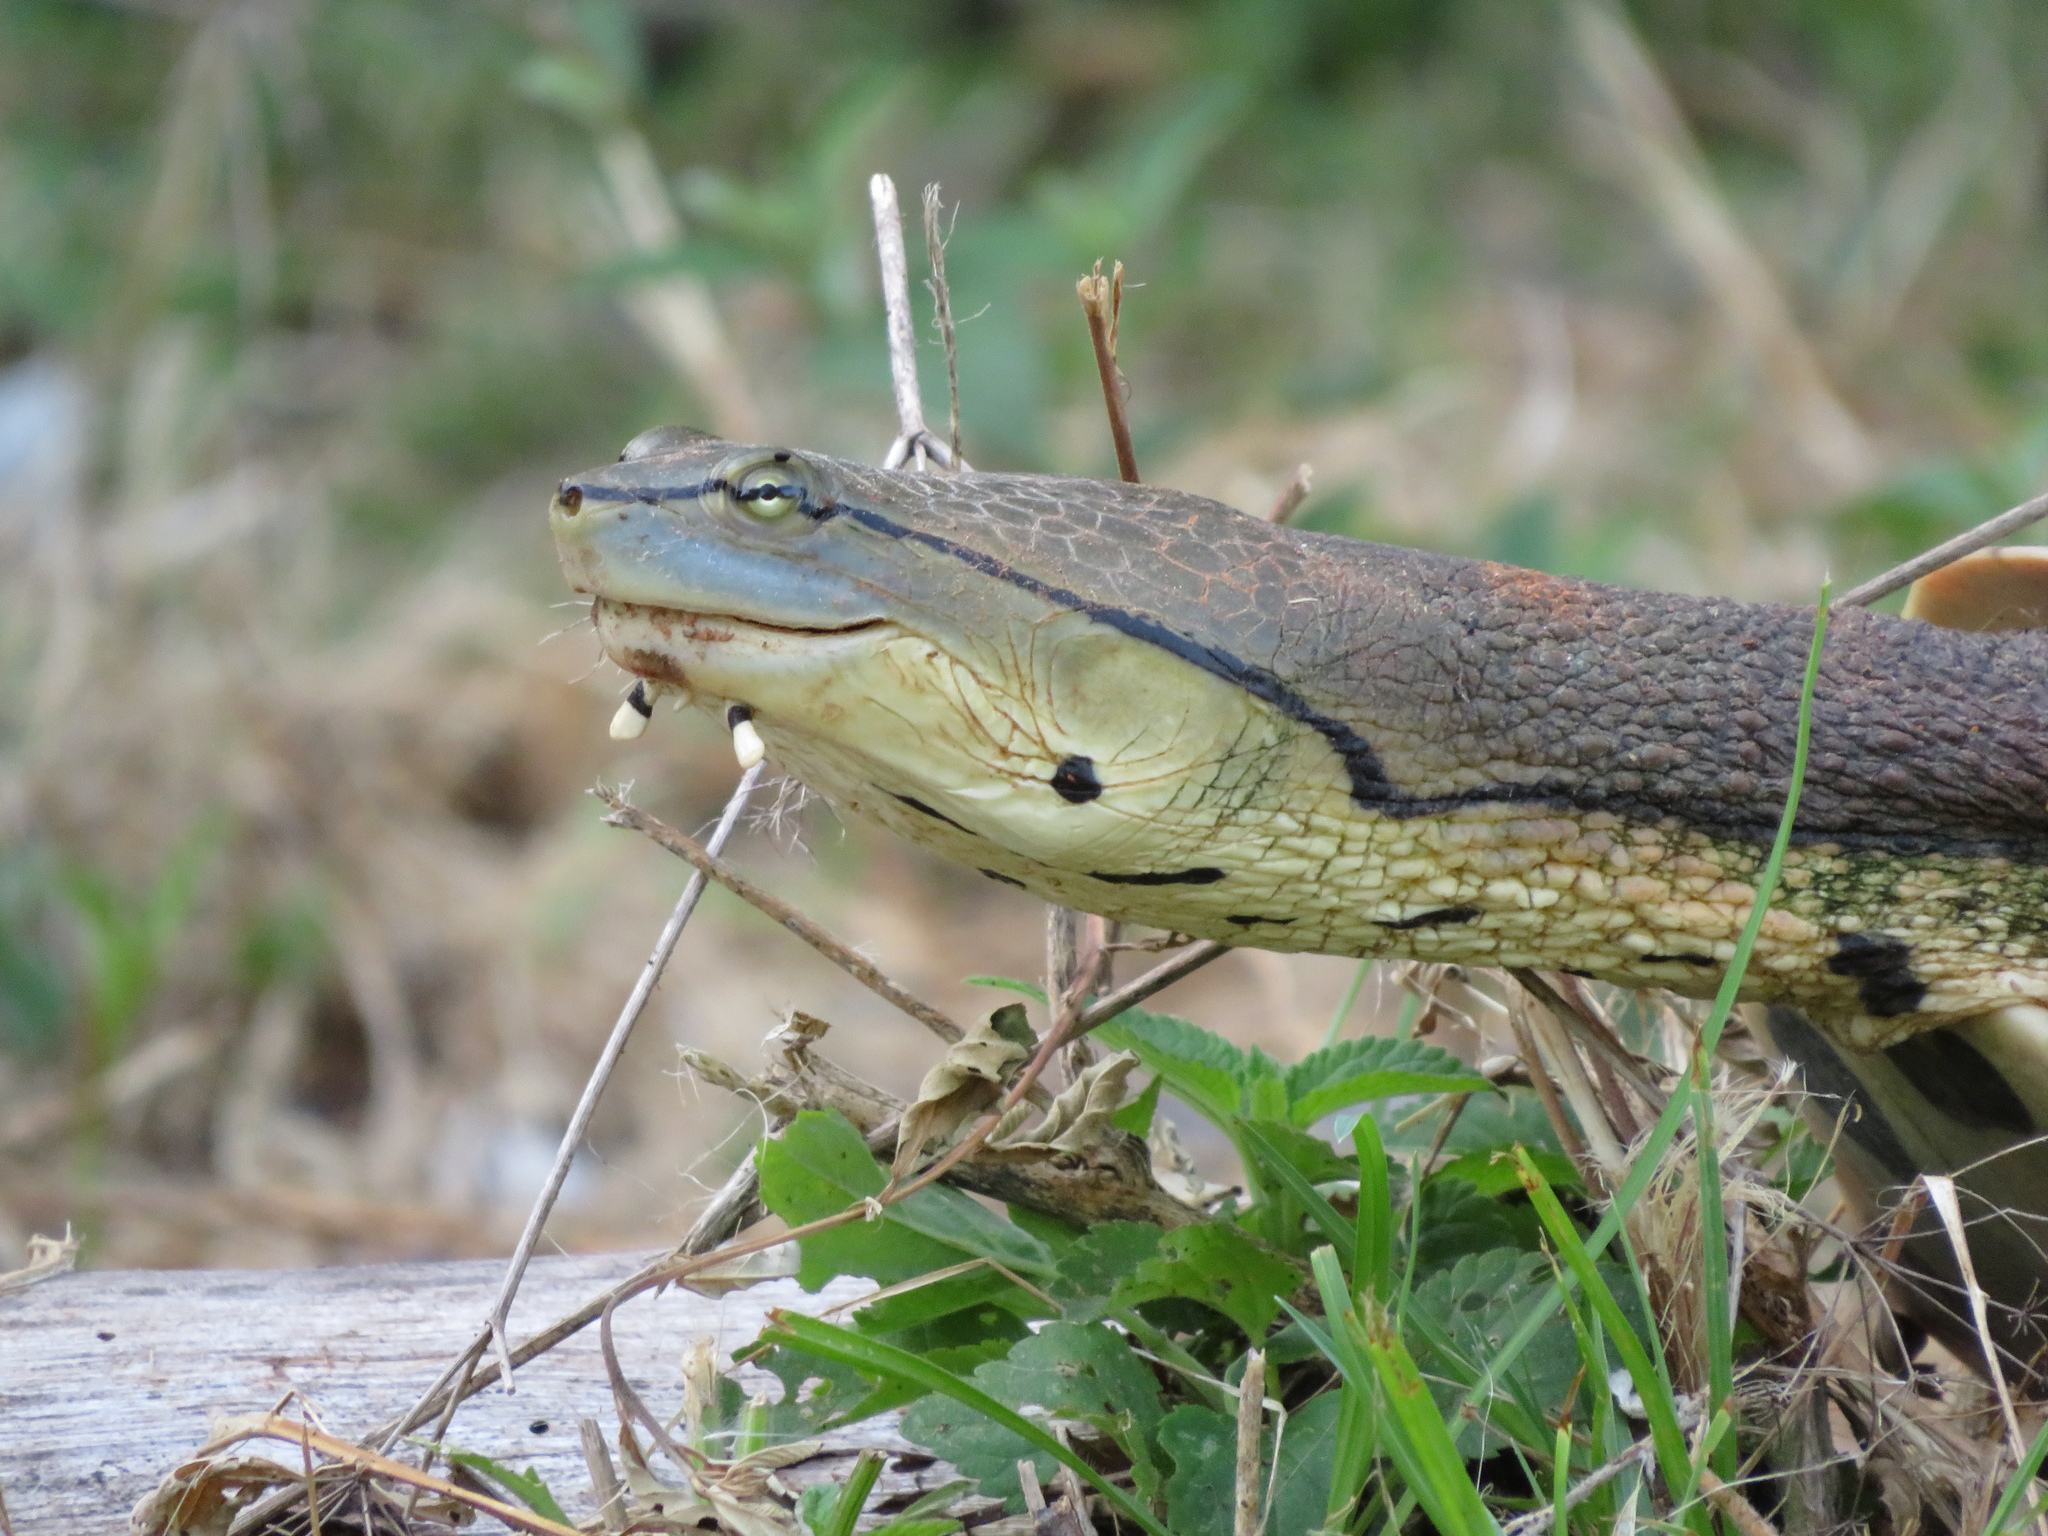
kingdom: Animalia
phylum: Chordata
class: Testudines
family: Chelidae
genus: Phrynops
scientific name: Phrynops hilarii
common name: Side-necked turtle of saint hillaire
